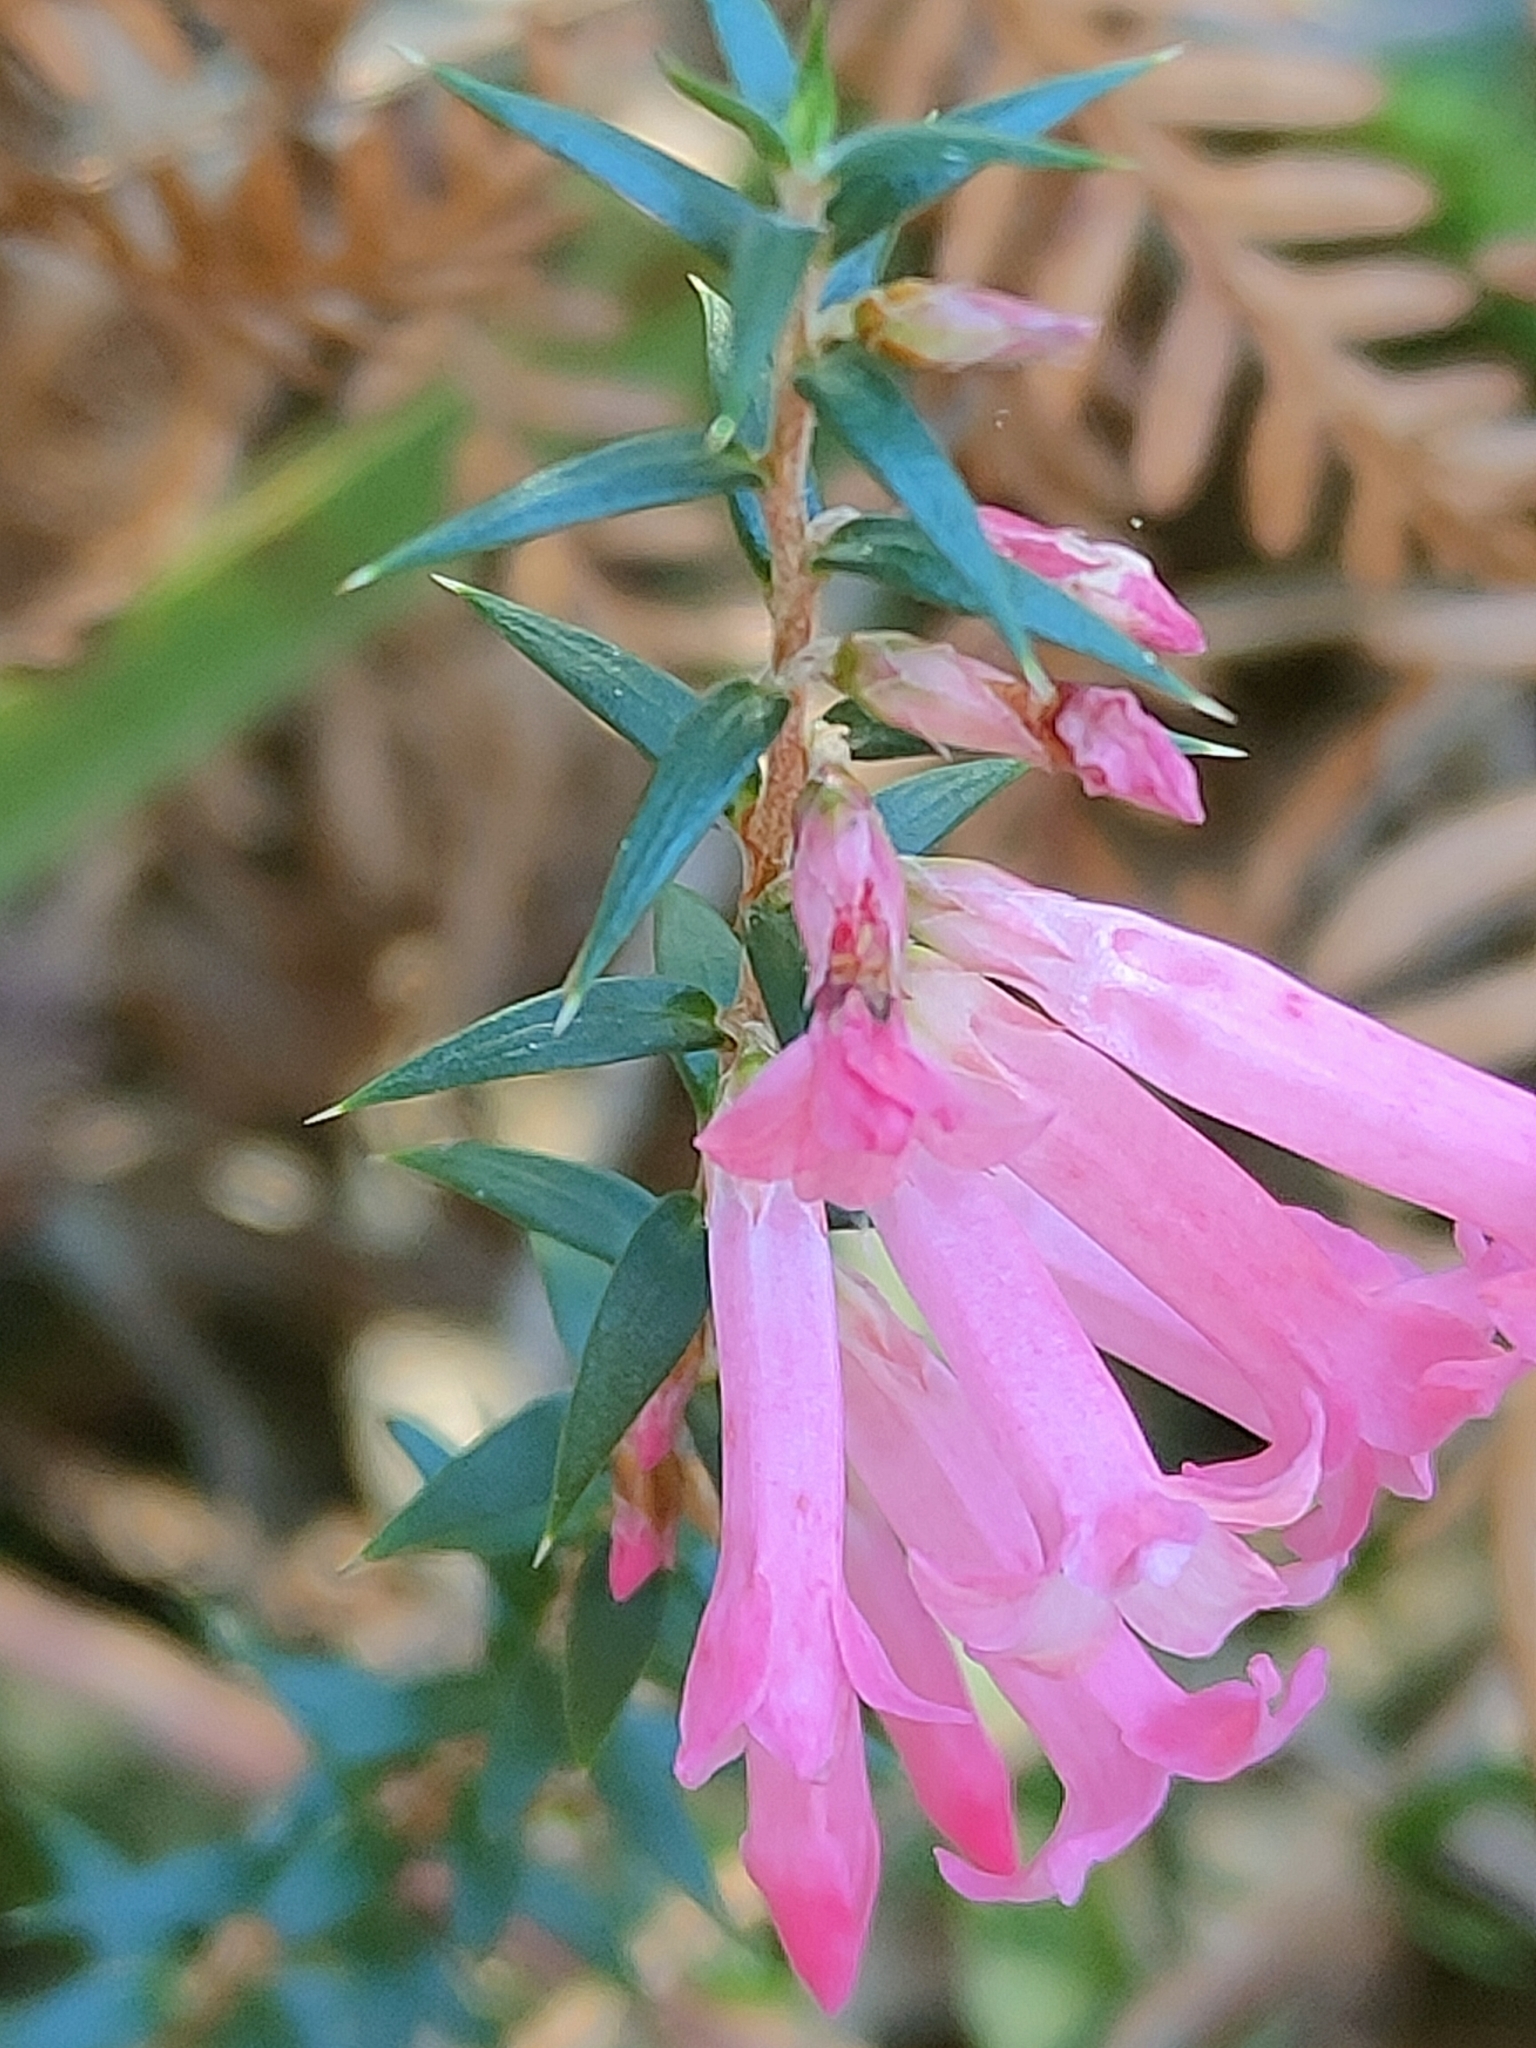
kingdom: Plantae
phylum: Tracheophyta
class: Magnoliopsida
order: Ericales
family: Ericaceae
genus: Epacris
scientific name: Epacris impressa
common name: Common-heath
